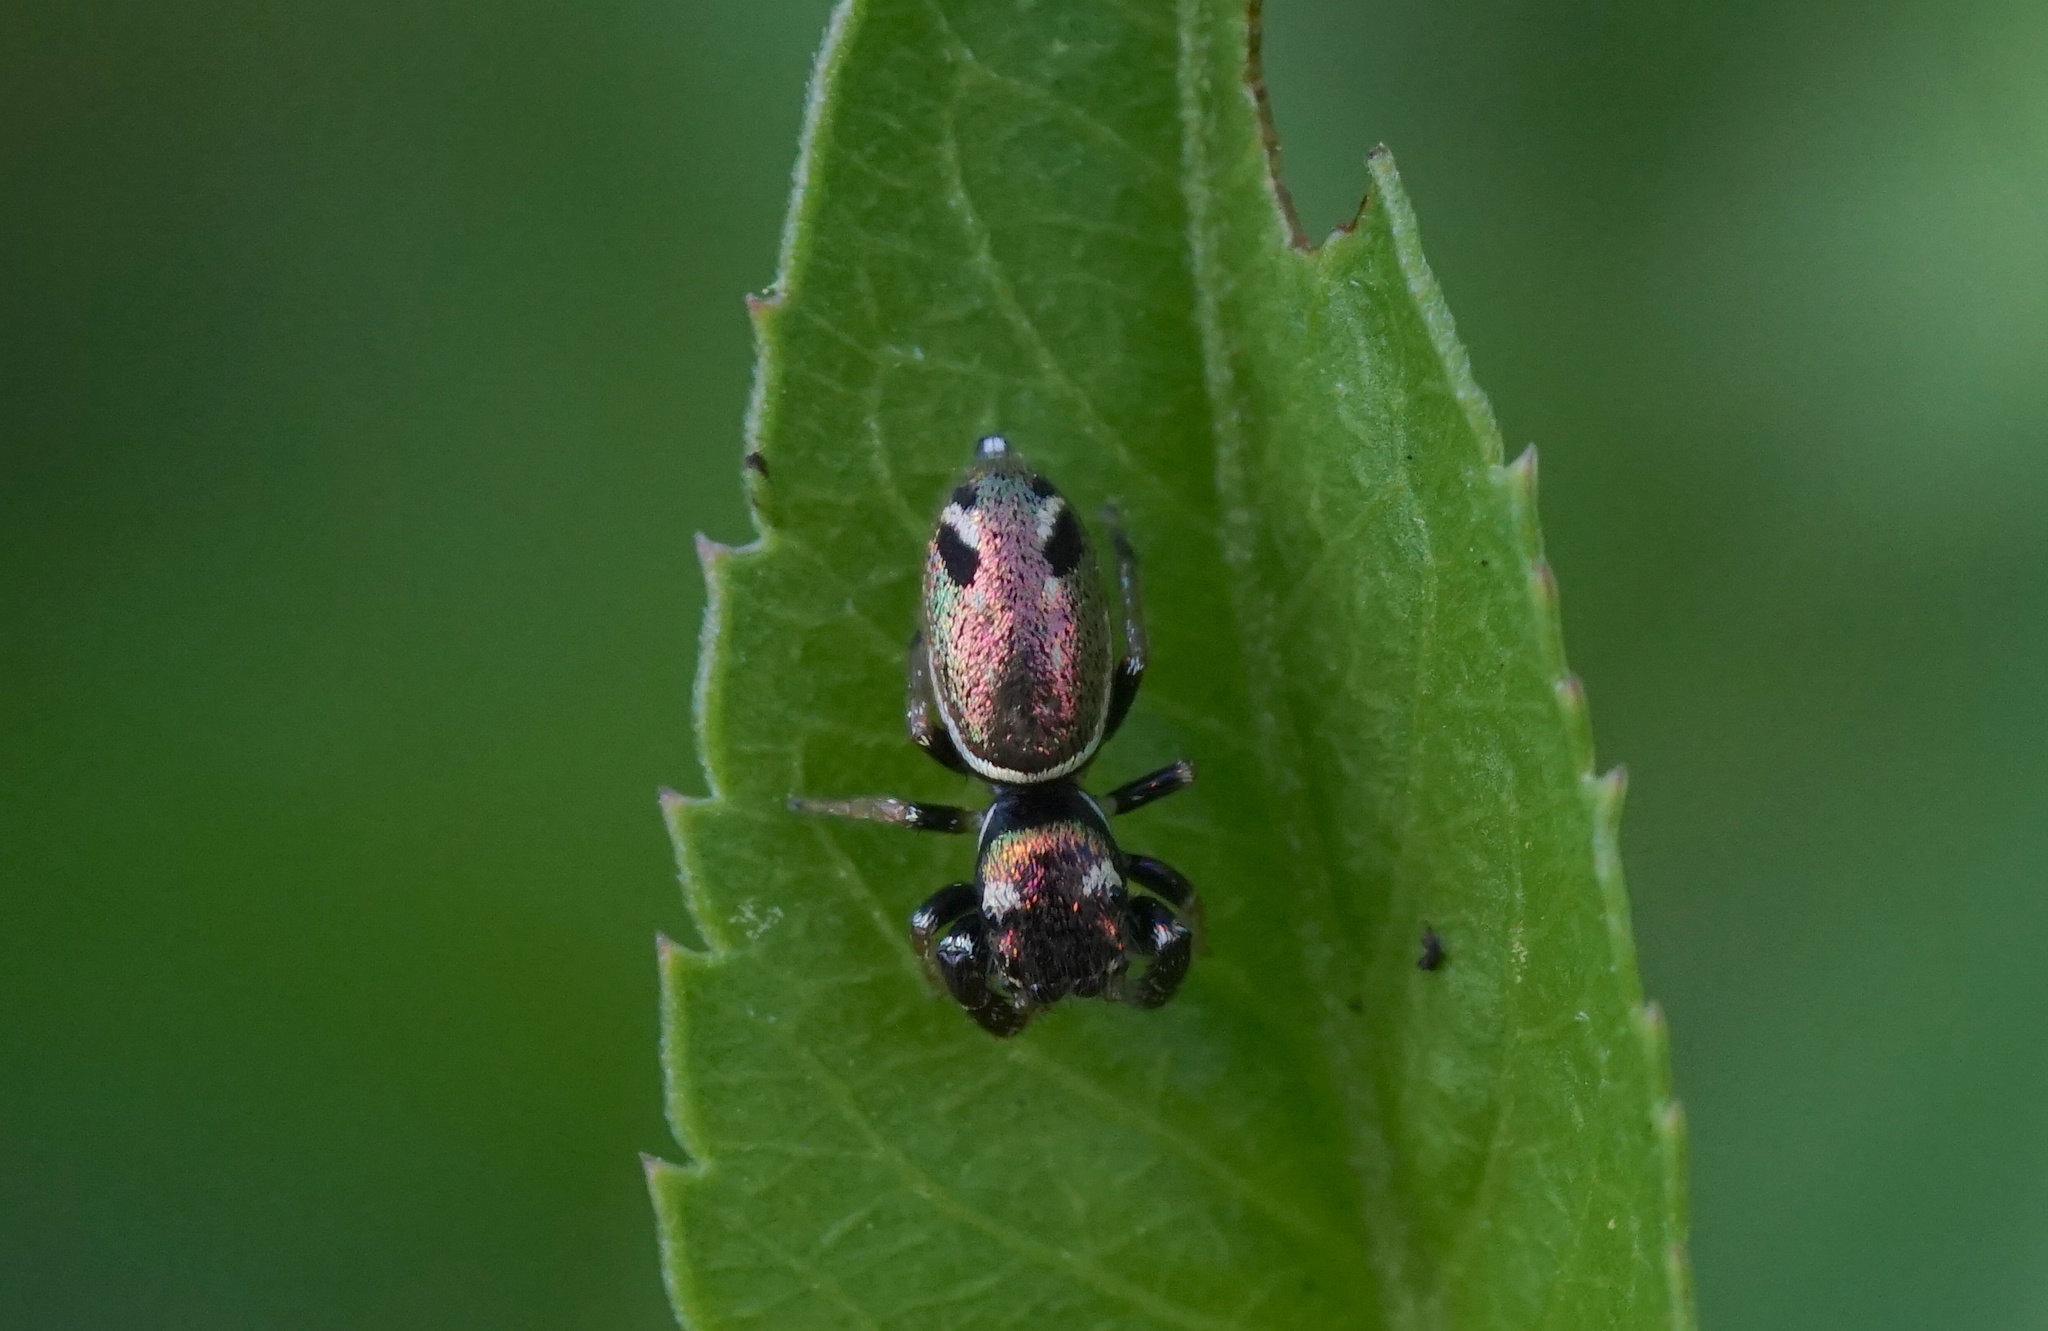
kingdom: Animalia
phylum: Arthropoda
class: Arachnida
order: Araneae
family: Salticidae
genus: Sassacus
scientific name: Sassacus vitis
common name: Jumping spiders
